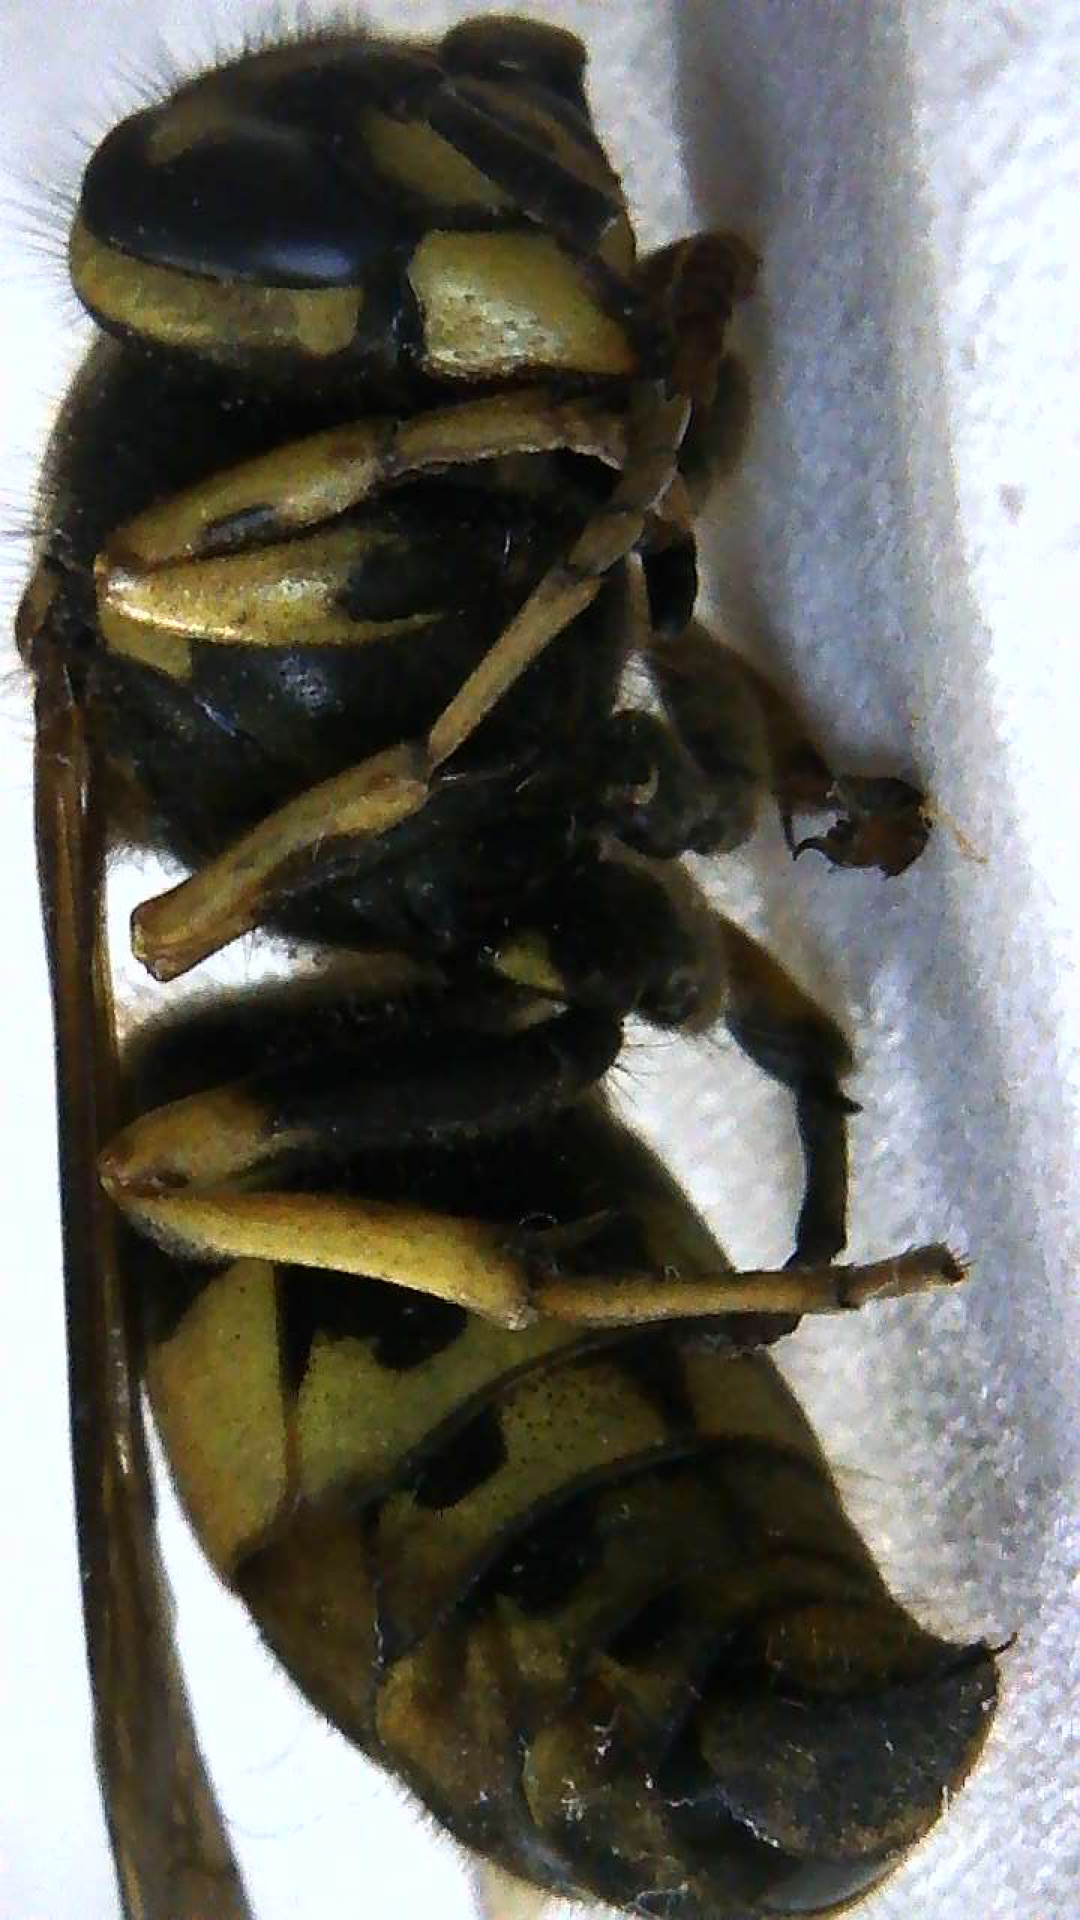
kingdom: Animalia
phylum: Arthropoda
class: Insecta
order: Hymenoptera
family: Vespidae
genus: Vespula
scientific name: Vespula flavopilosa
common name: Downy yellowjacket
